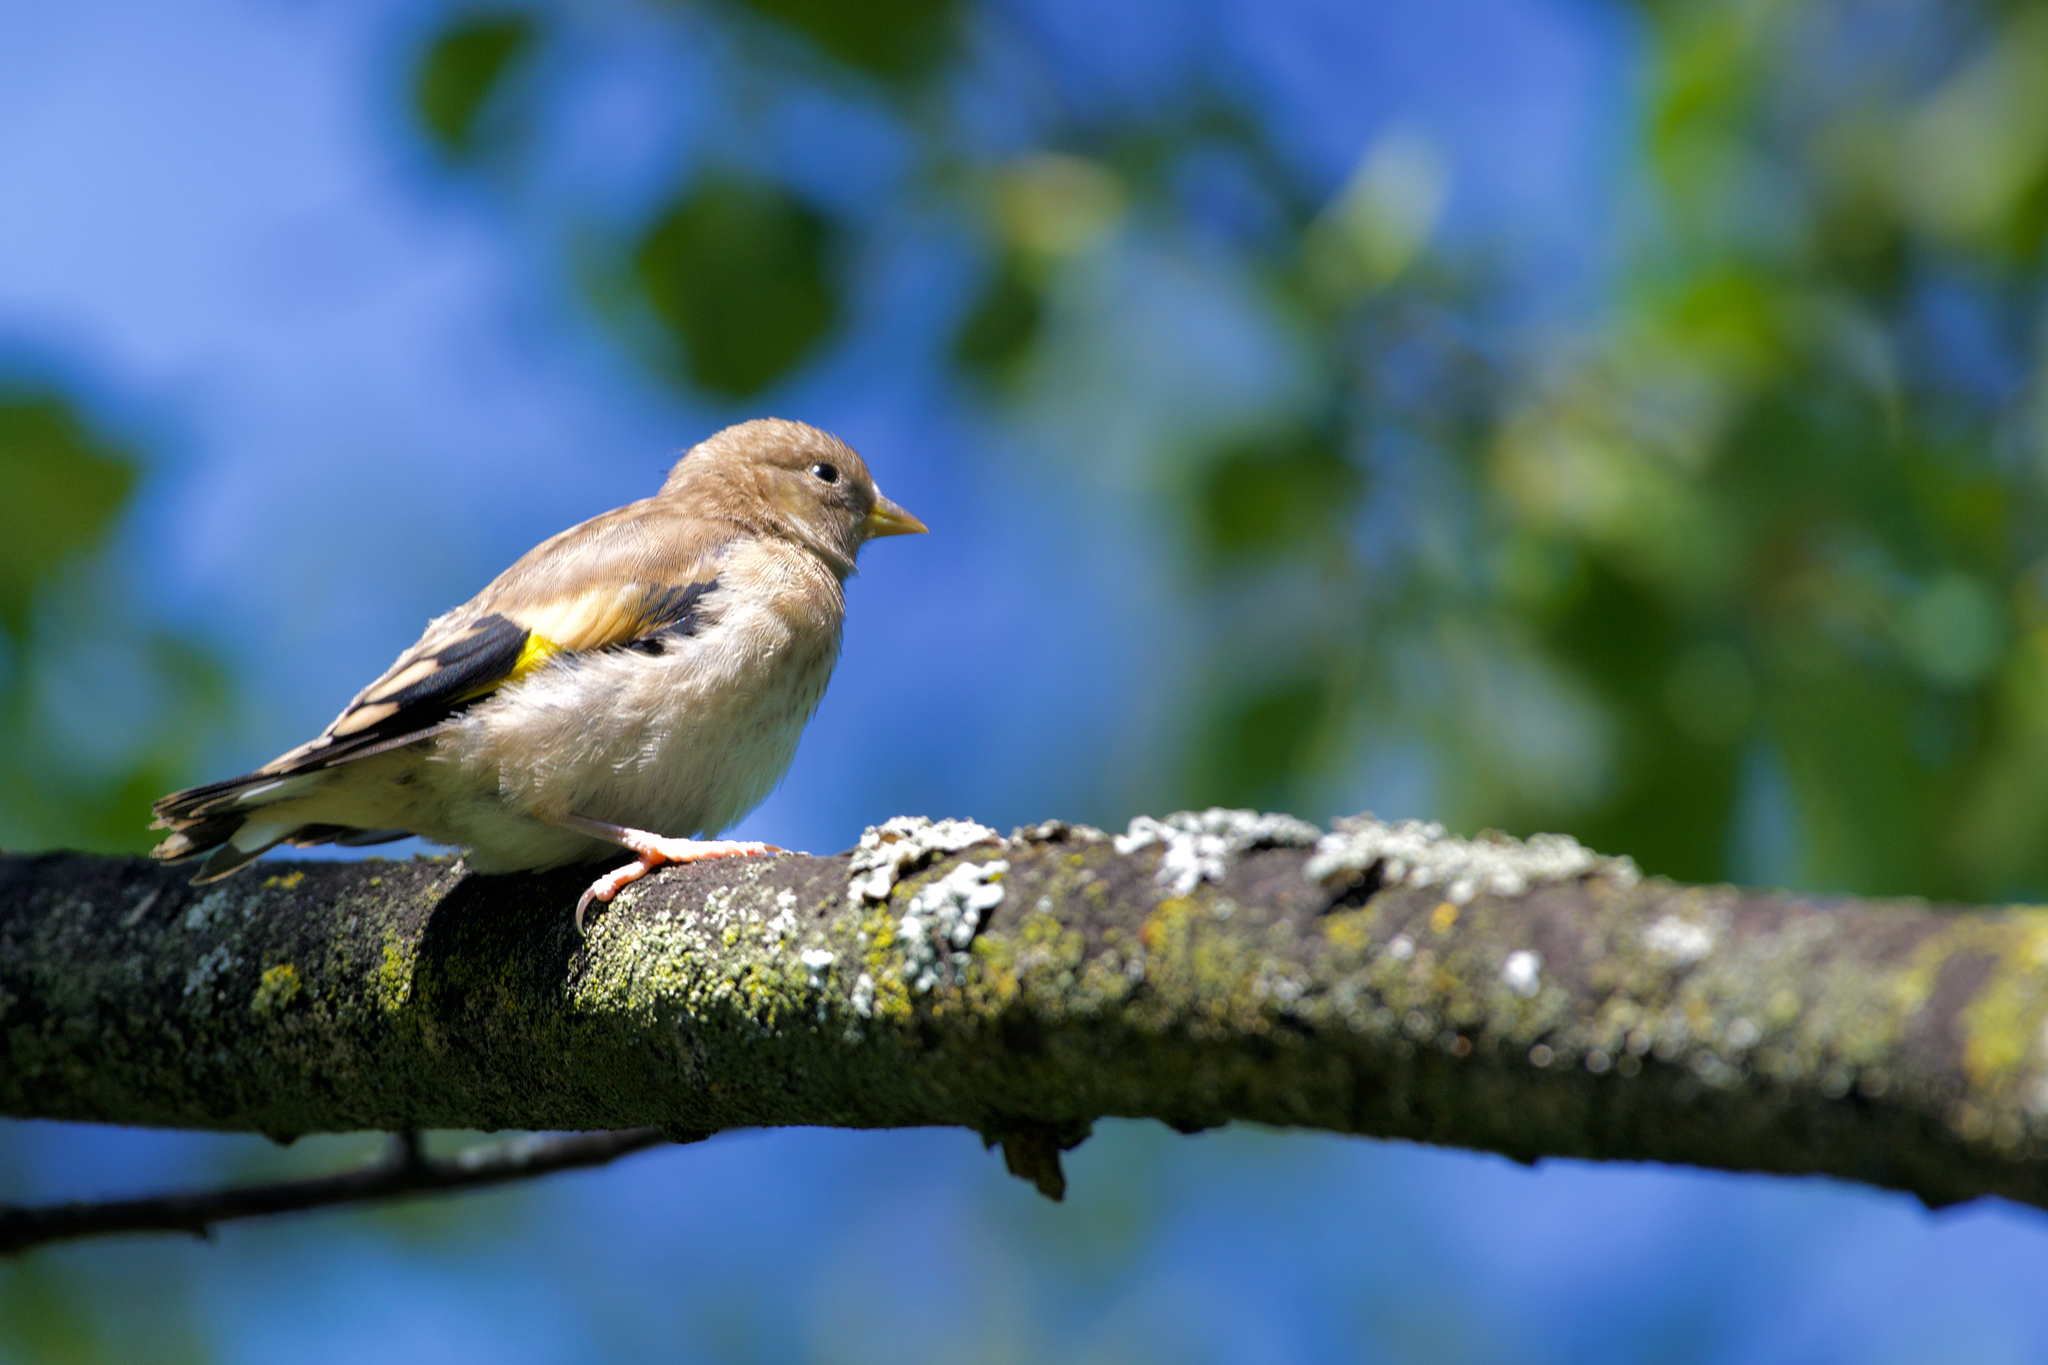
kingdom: Animalia
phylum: Chordata
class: Aves
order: Passeriformes
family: Fringillidae
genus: Carduelis
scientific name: Carduelis carduelis
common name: European goldfinch
